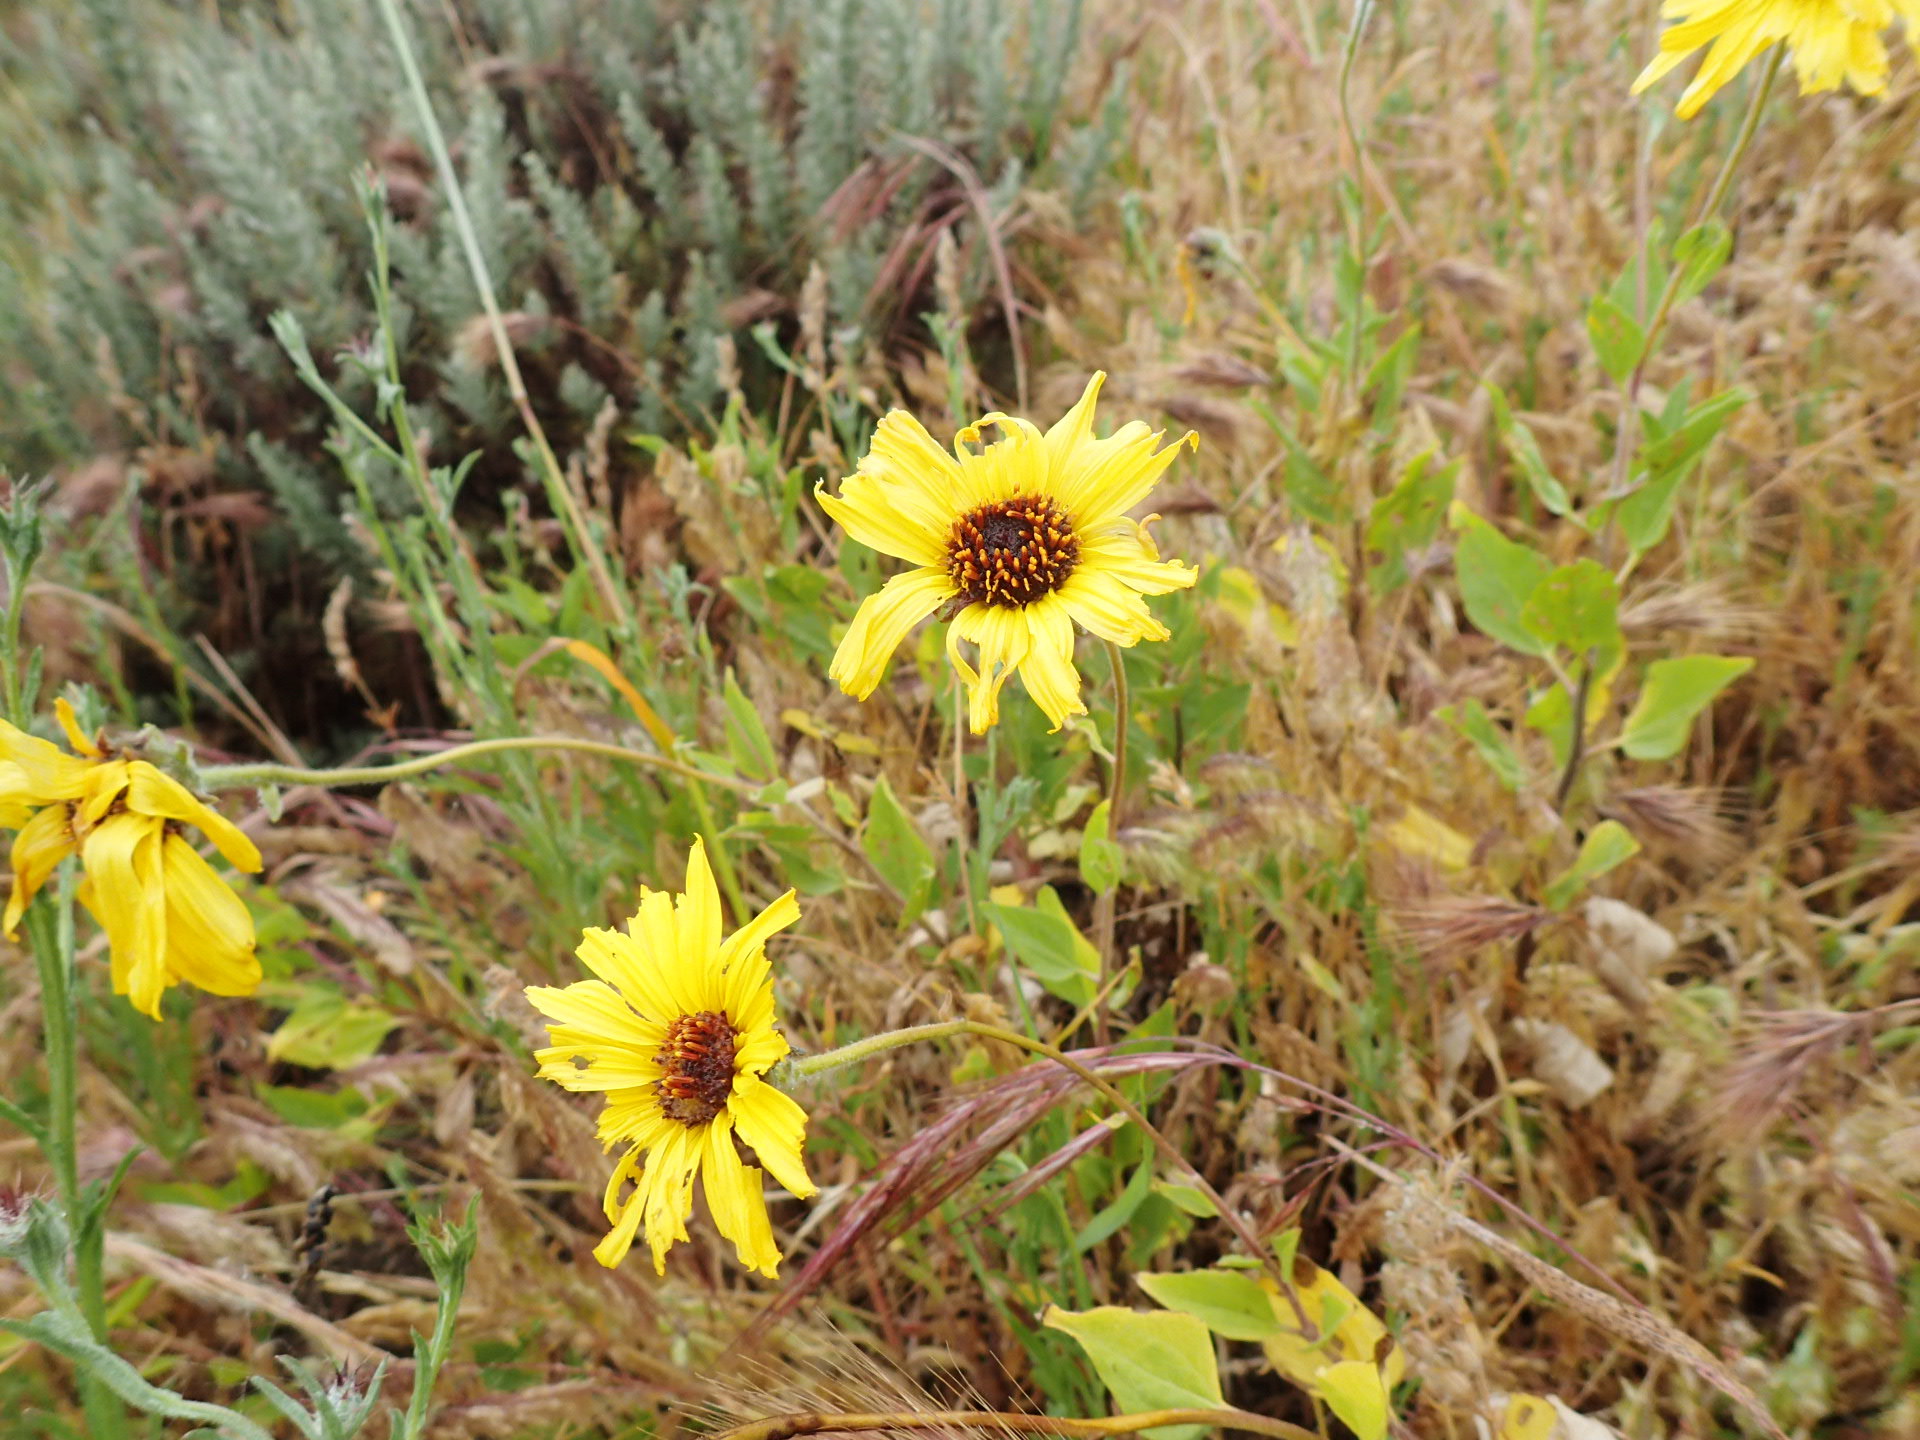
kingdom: Plantae
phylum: Tracheophyta
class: Magnoliopsida
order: Asterales
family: Asteraceae
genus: Encelia
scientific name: Encelia californica
